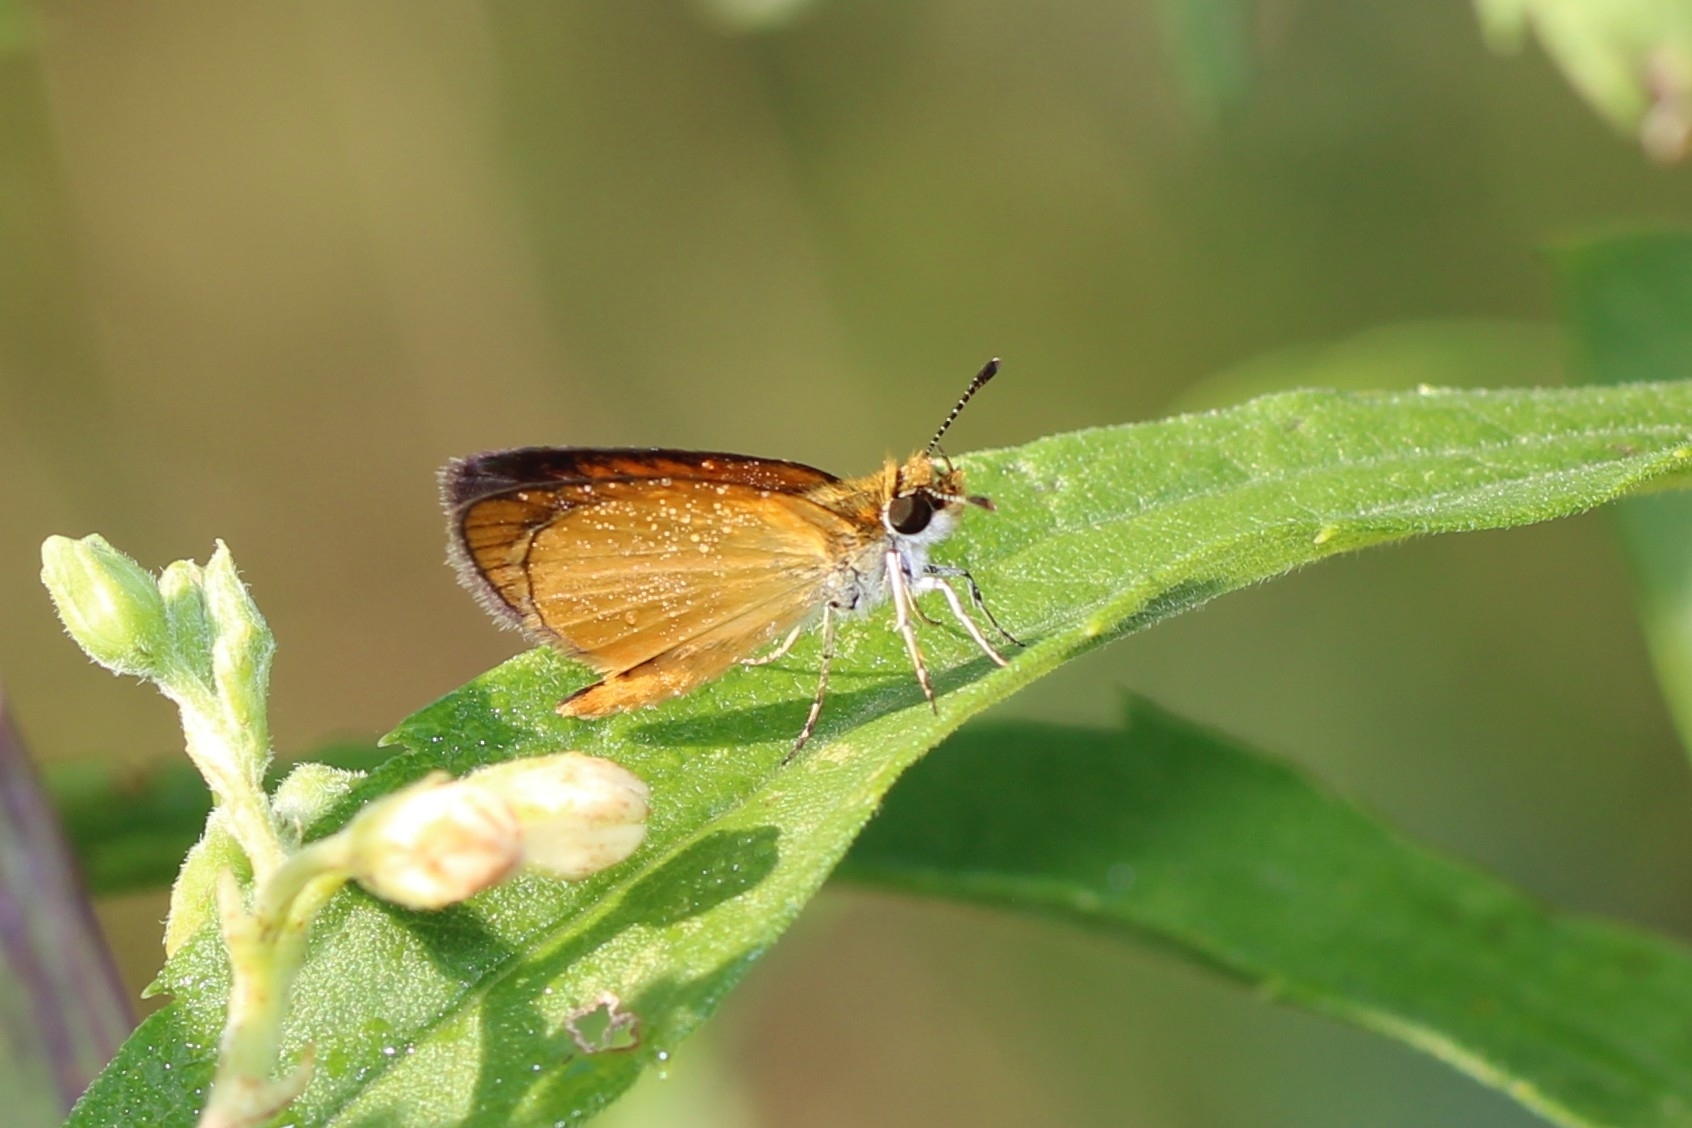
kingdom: Animalia
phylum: Arthropoda
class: Insecta
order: Lepidoptera
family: Hesperiidae
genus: Ancyloxypha
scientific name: Ancyloxypha numitor
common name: Least skipper
